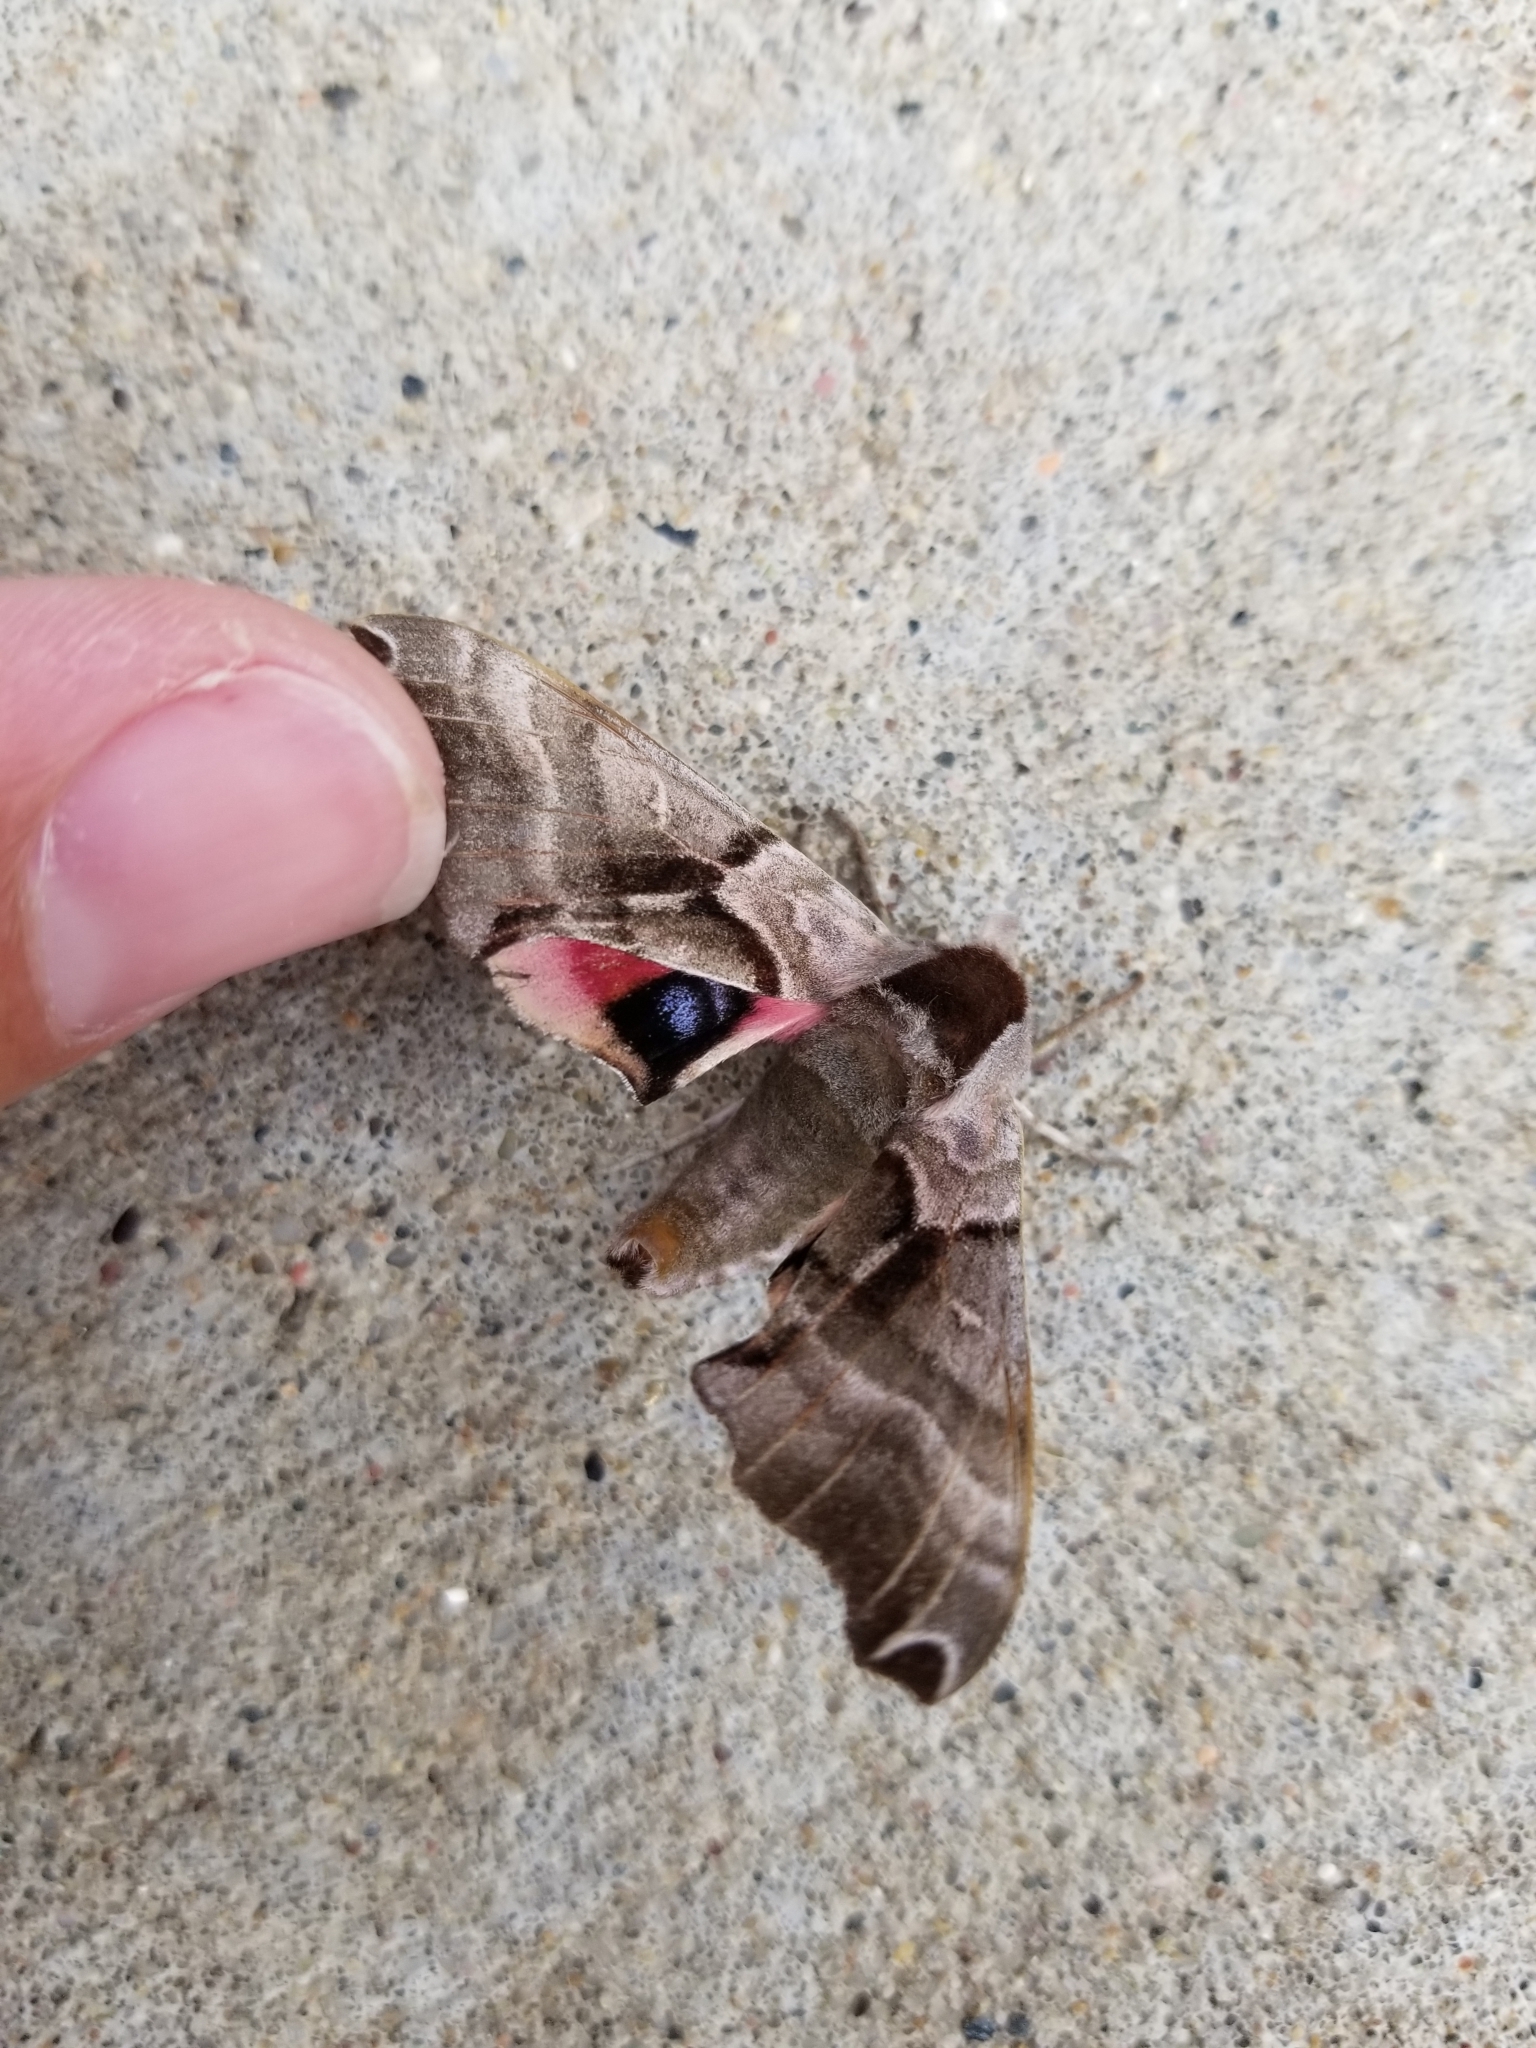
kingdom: Animalia
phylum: Arthropoda
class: Insecta
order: Lepidoptera
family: Sphingidae
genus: Smerinthus
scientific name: Smerinthus jamaicensis
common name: Twin spotted sphinx
